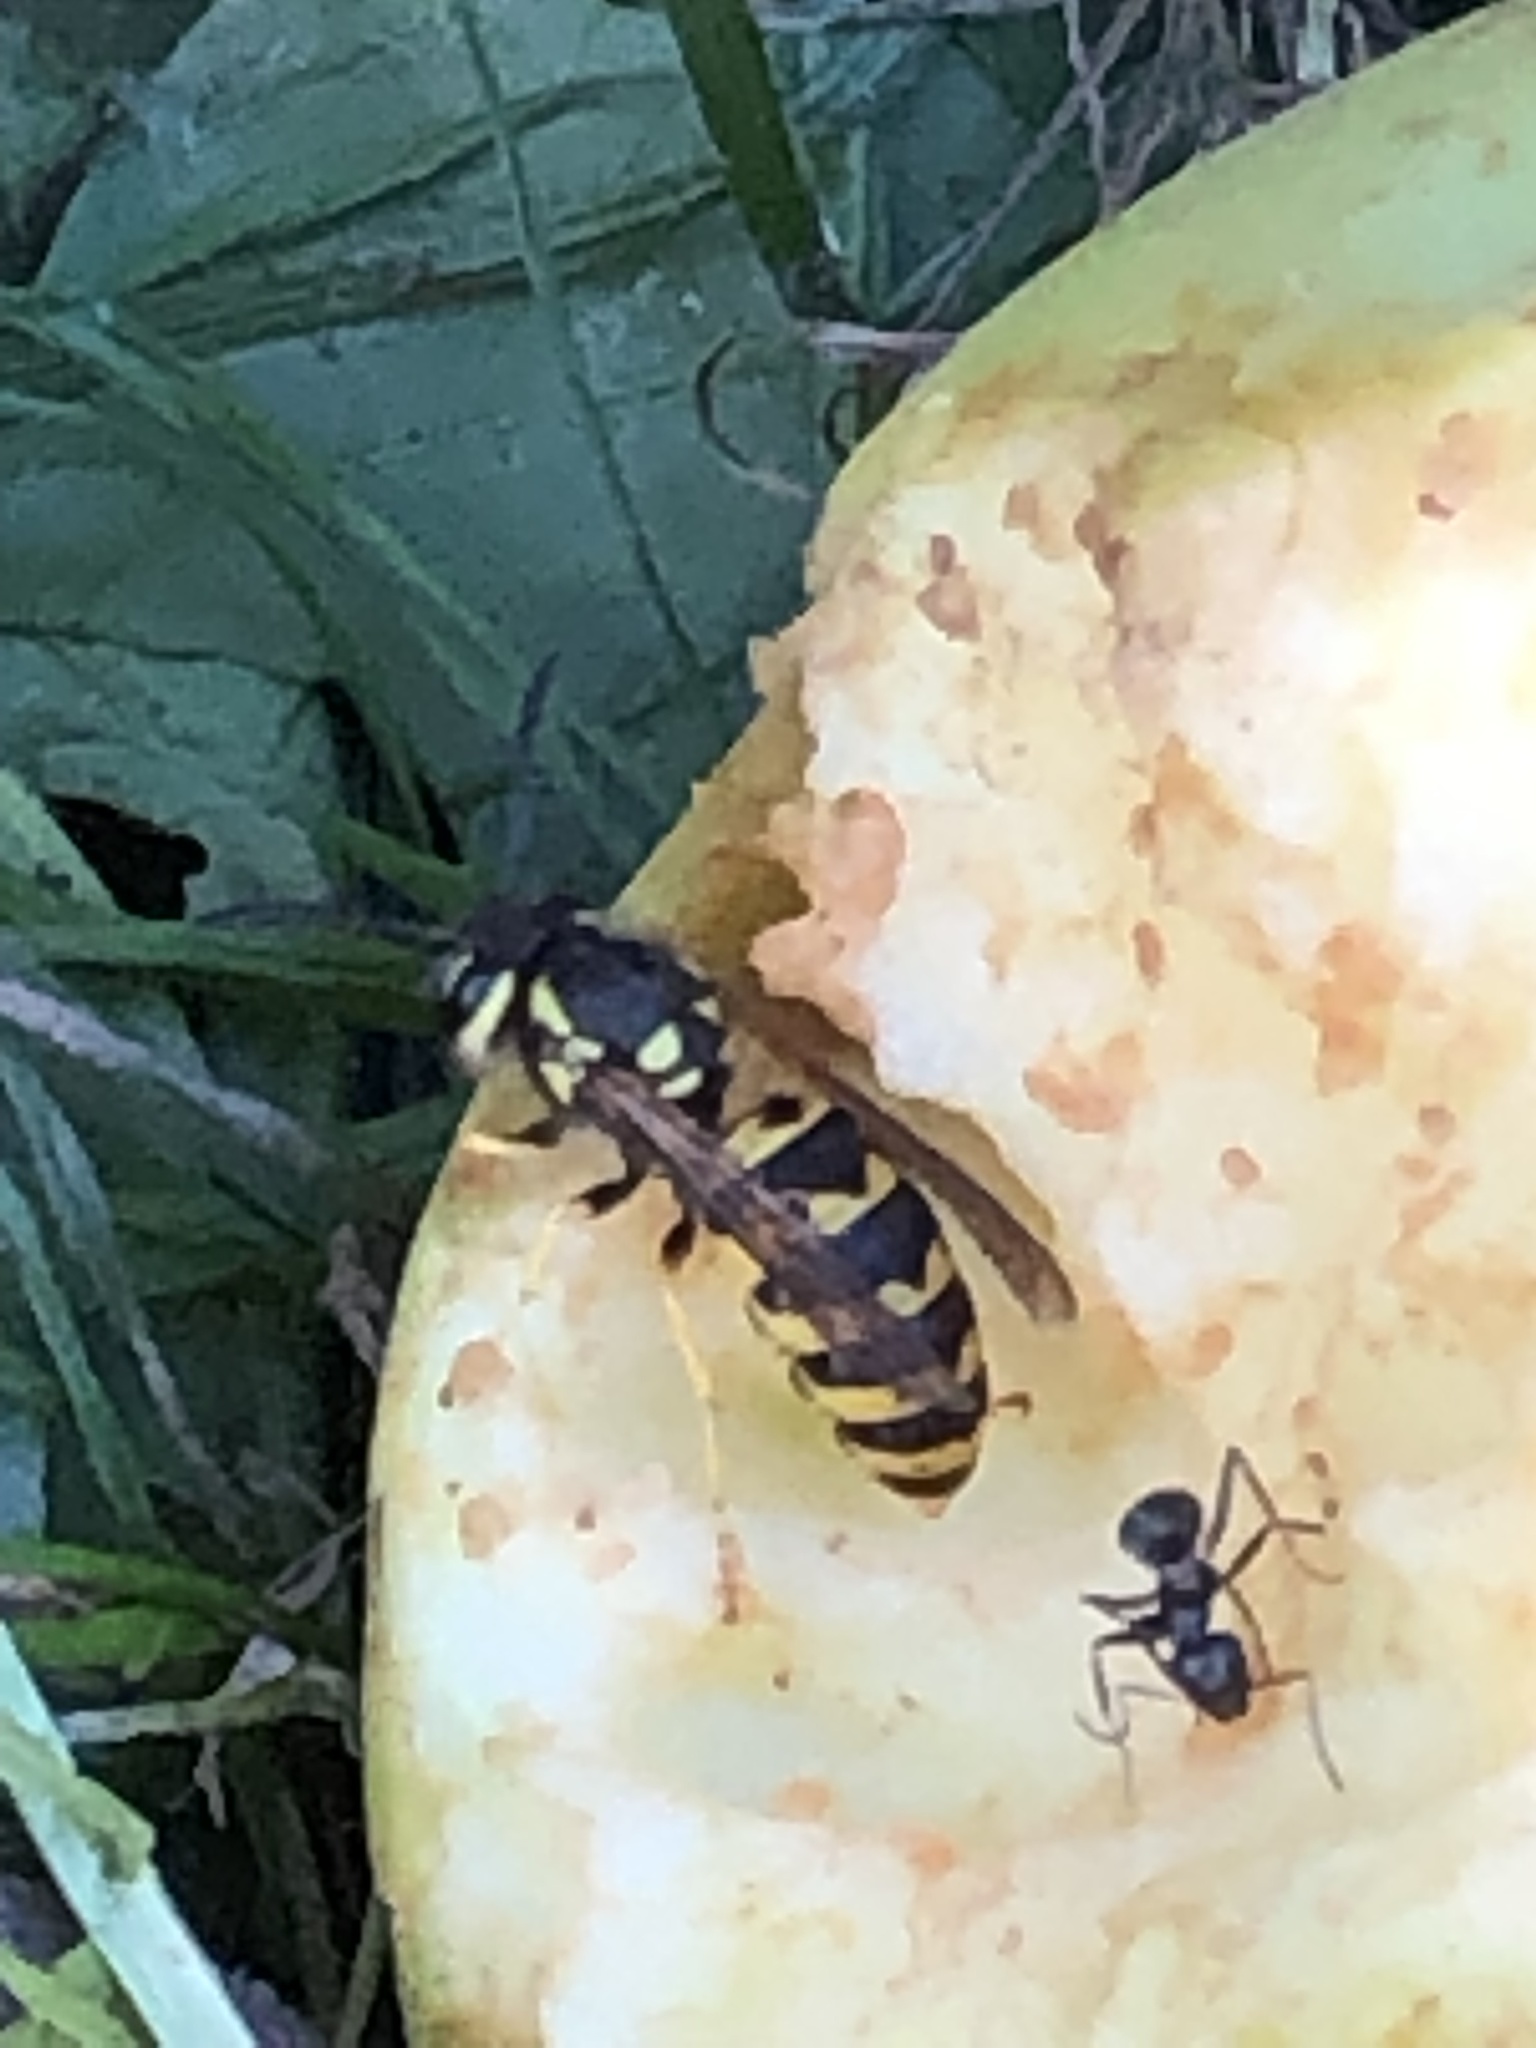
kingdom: Animalia
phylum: Arthropoda
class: Insecta
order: Hymenoptera
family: Vespidae
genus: Vespula
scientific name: Vespula germanica
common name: German wasp
